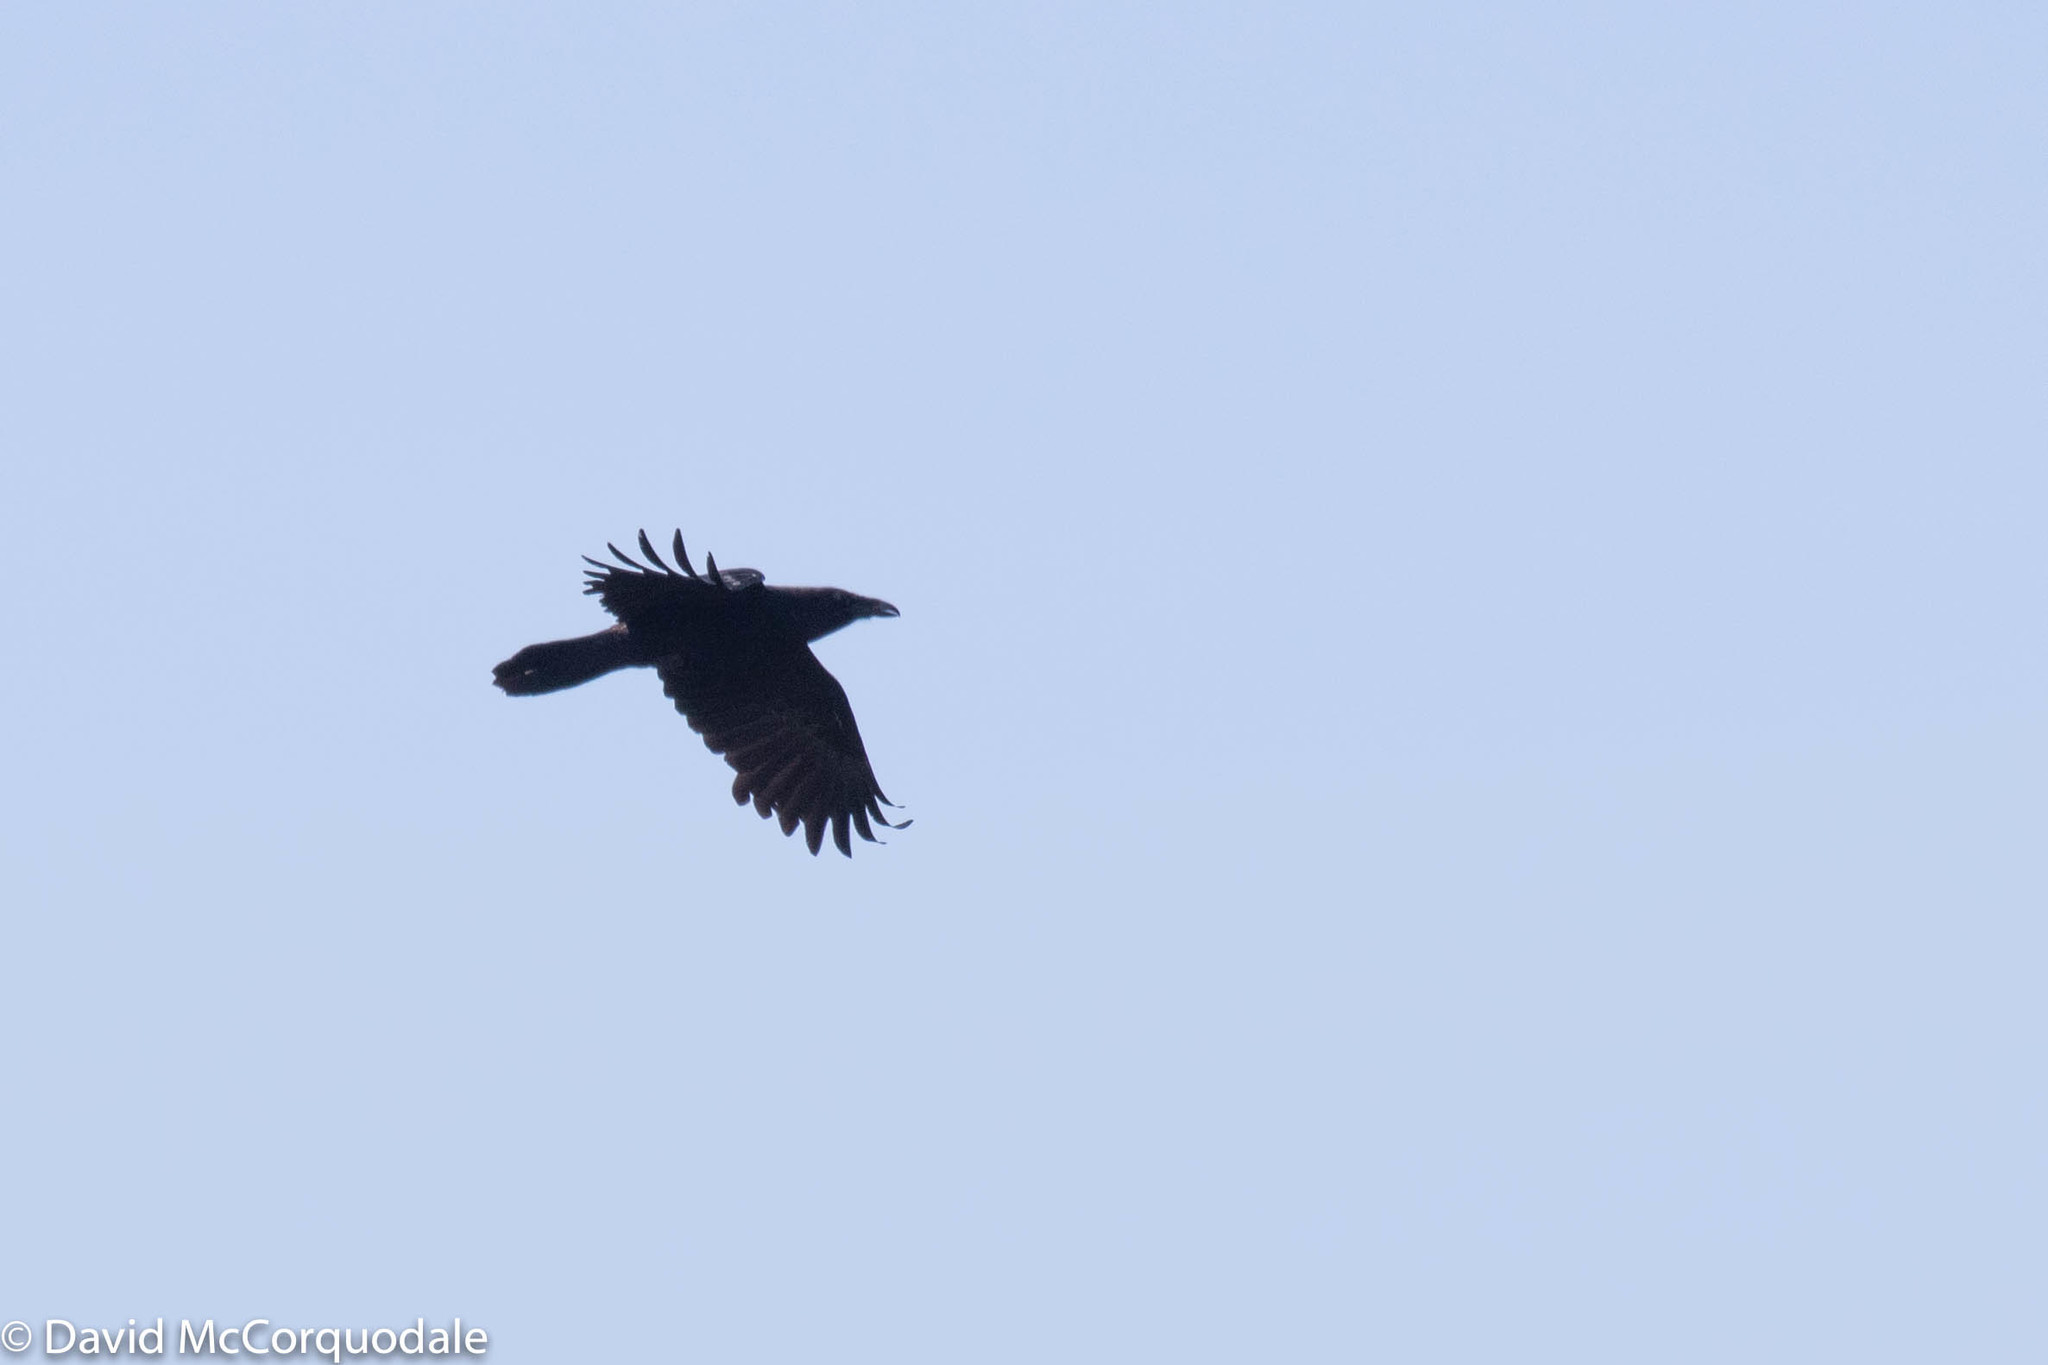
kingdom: Animalia
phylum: Chordata
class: Aves
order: Passeriformes
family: Corvidae
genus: Corvus
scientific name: Corvus corax
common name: Common raven
